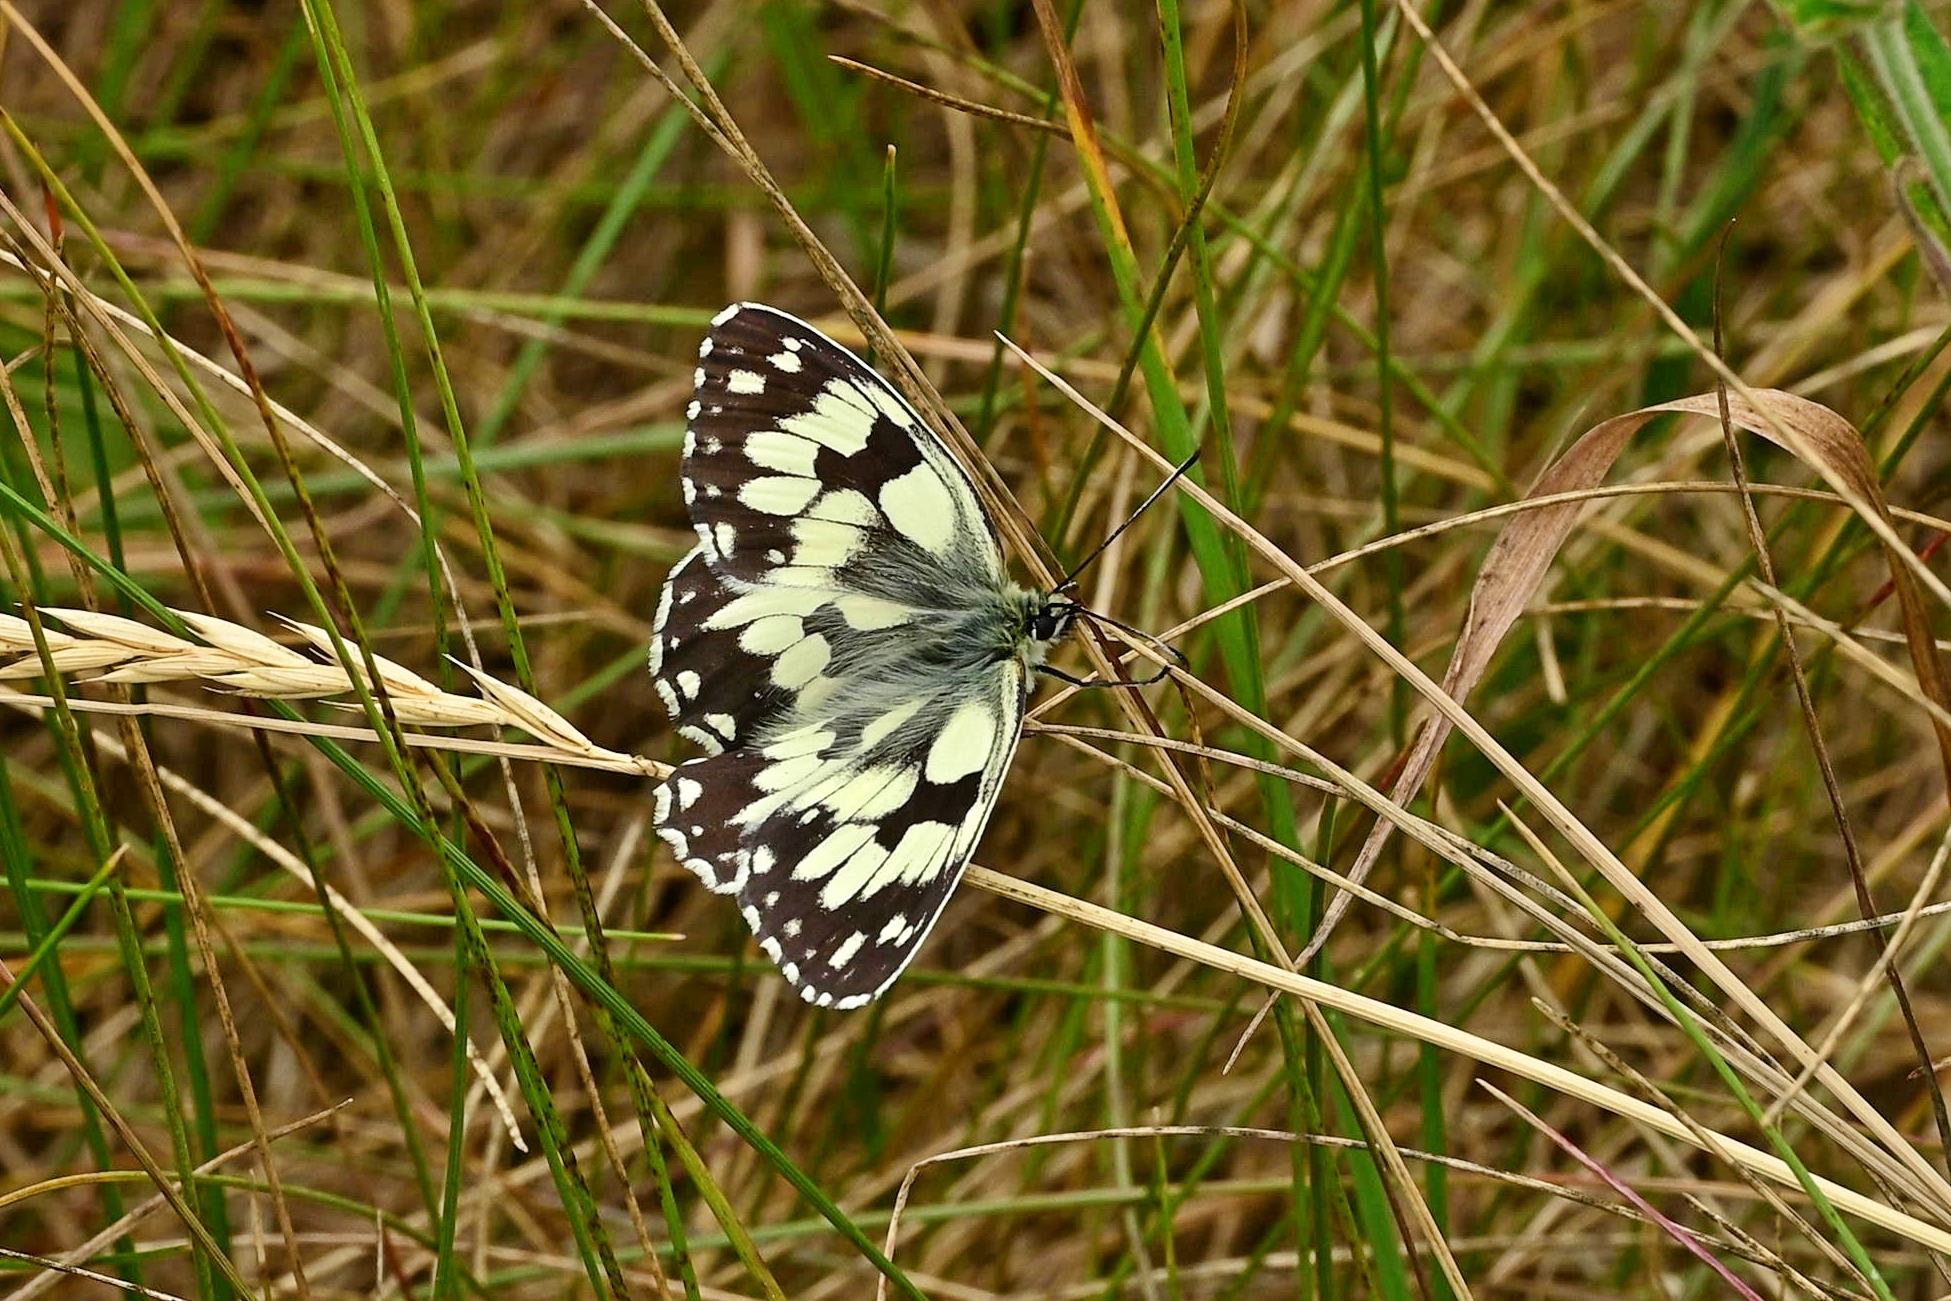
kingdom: Animalia
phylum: Arthropoda
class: Insecta
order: Lepidoptera
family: Nymphalidae
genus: Melanargia
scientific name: Melanargia galathea
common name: Marbled white
